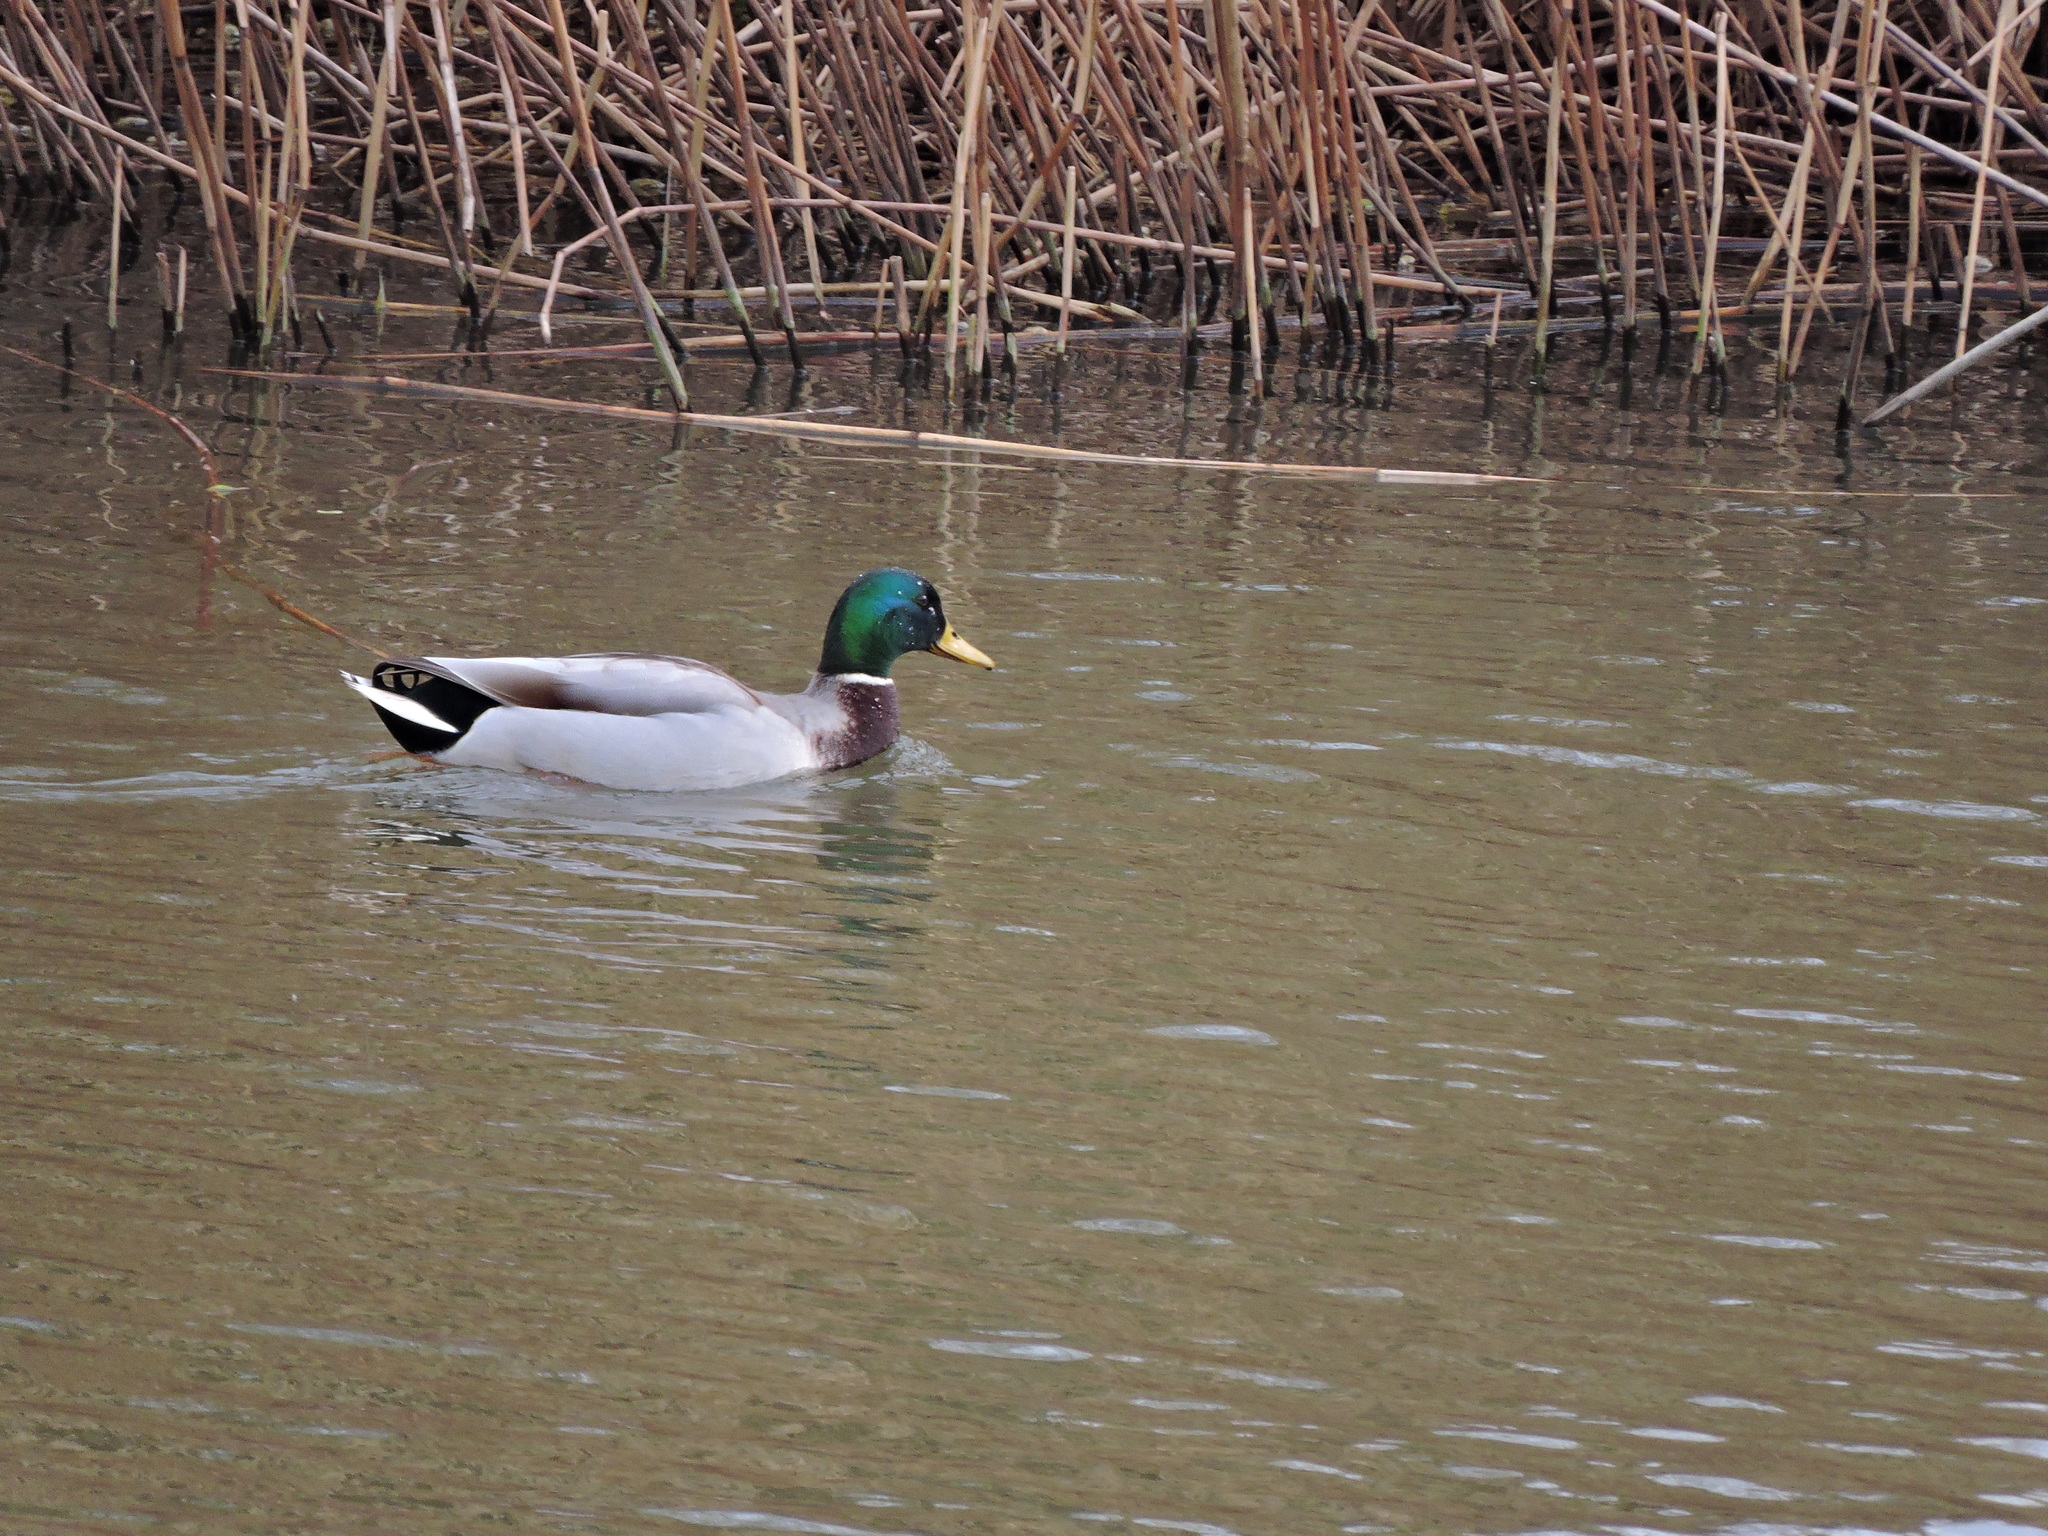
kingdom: Animalia
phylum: Chordata
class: Aves
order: Anseriformes
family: Anatidae
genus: Anas
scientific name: Anas platyrhynchos
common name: Mallard
